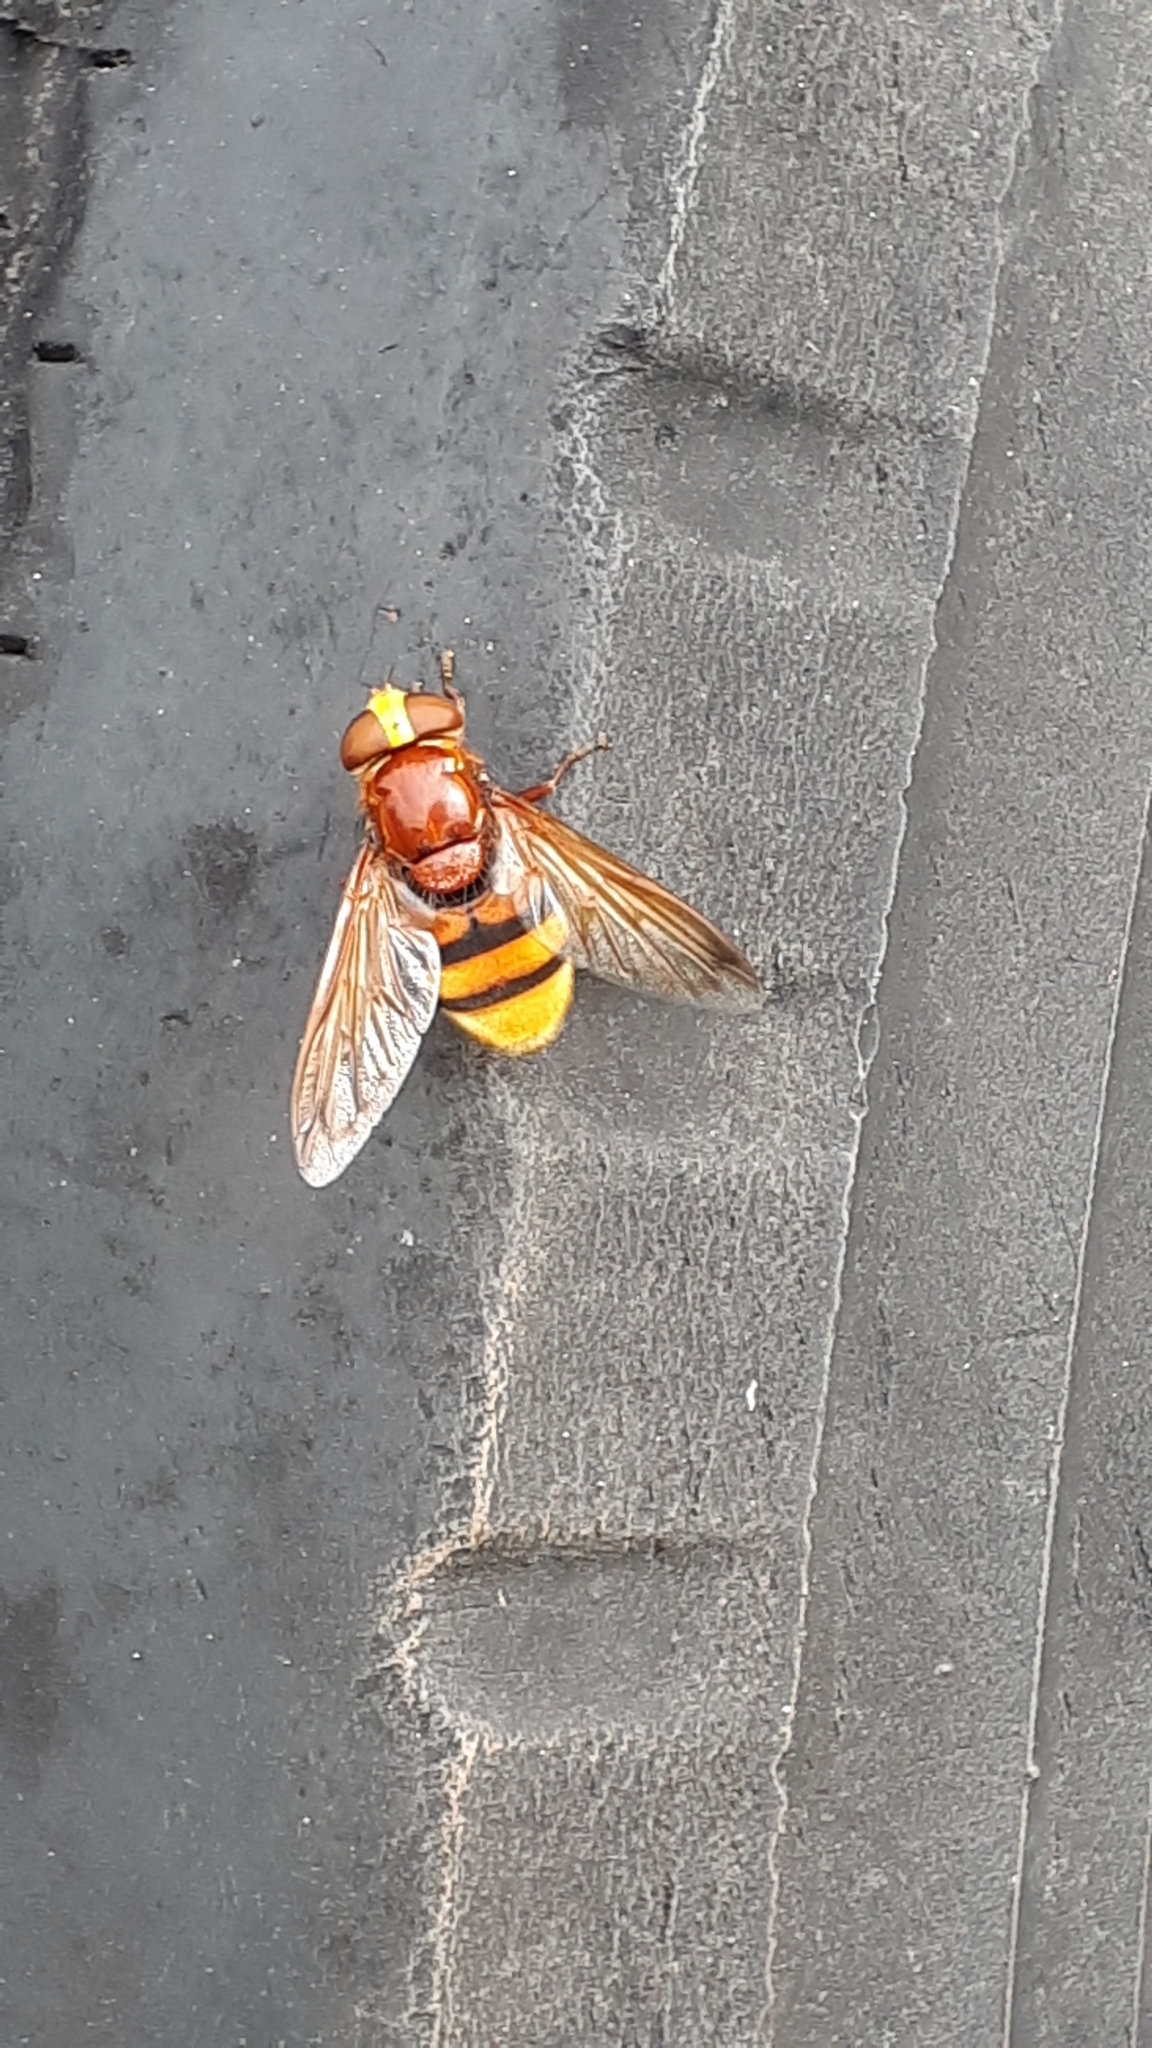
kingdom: Animalia
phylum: Arthropoda
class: Insecta
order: Diptera
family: Syrphidae
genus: Volucella
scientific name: Volucella zonaria
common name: Hornet hoverfly
